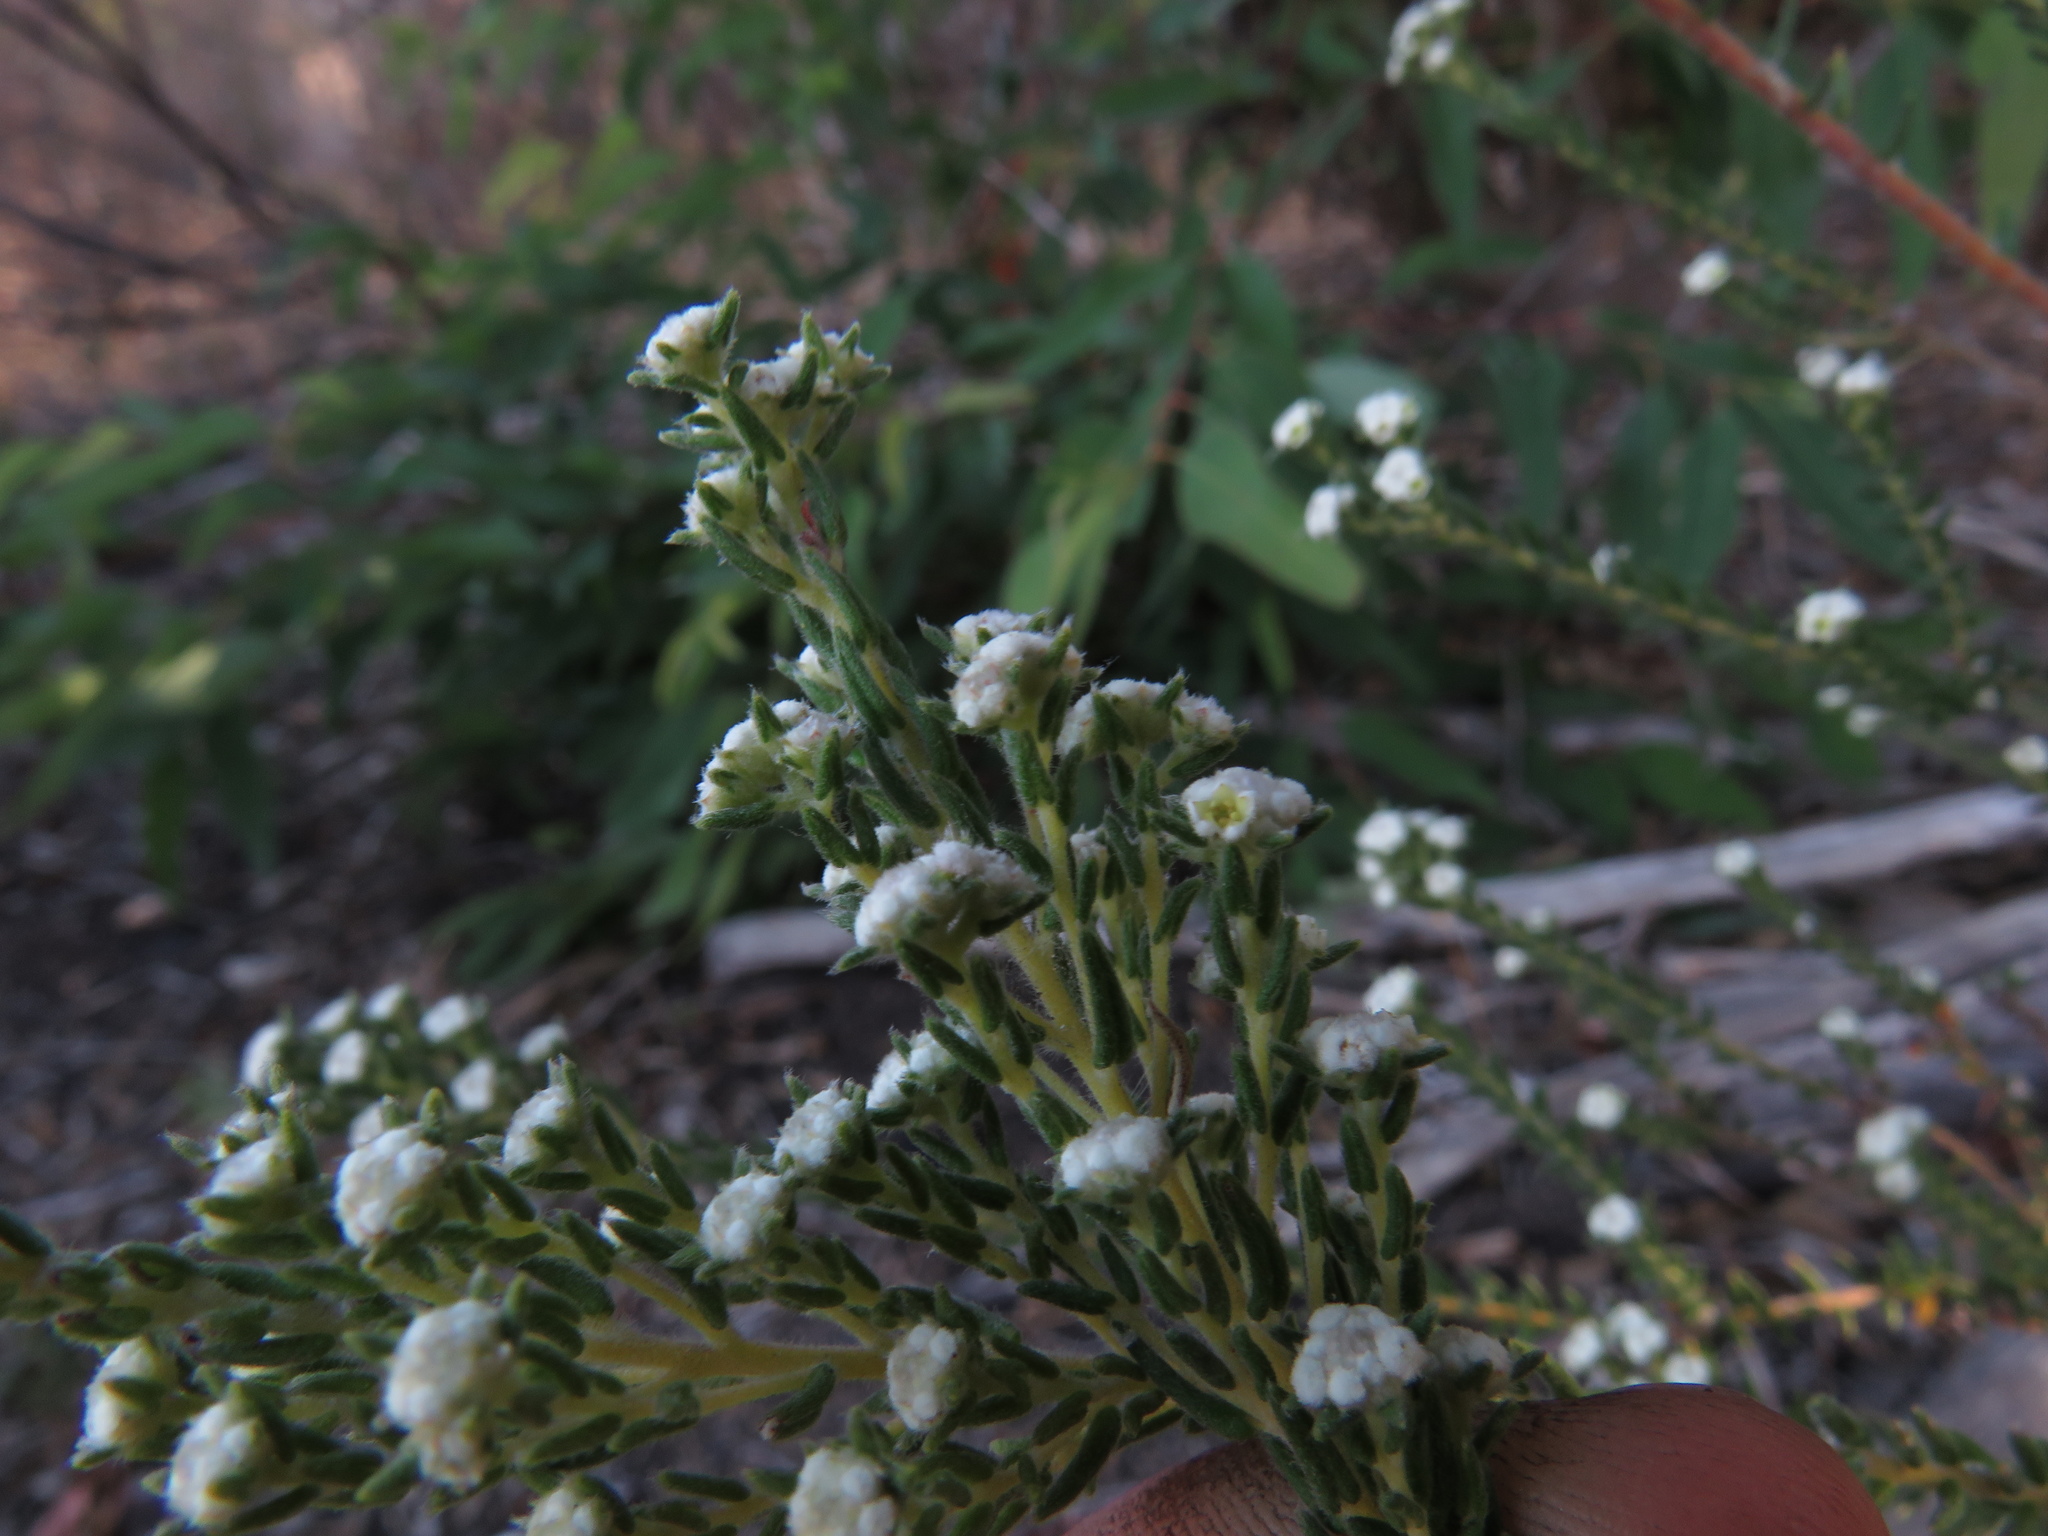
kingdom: Plantae
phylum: Tracheophyta
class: Magnoliopsida
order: Rosales
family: Rhamnaceae
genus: Phylica
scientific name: Phylica parviflora
